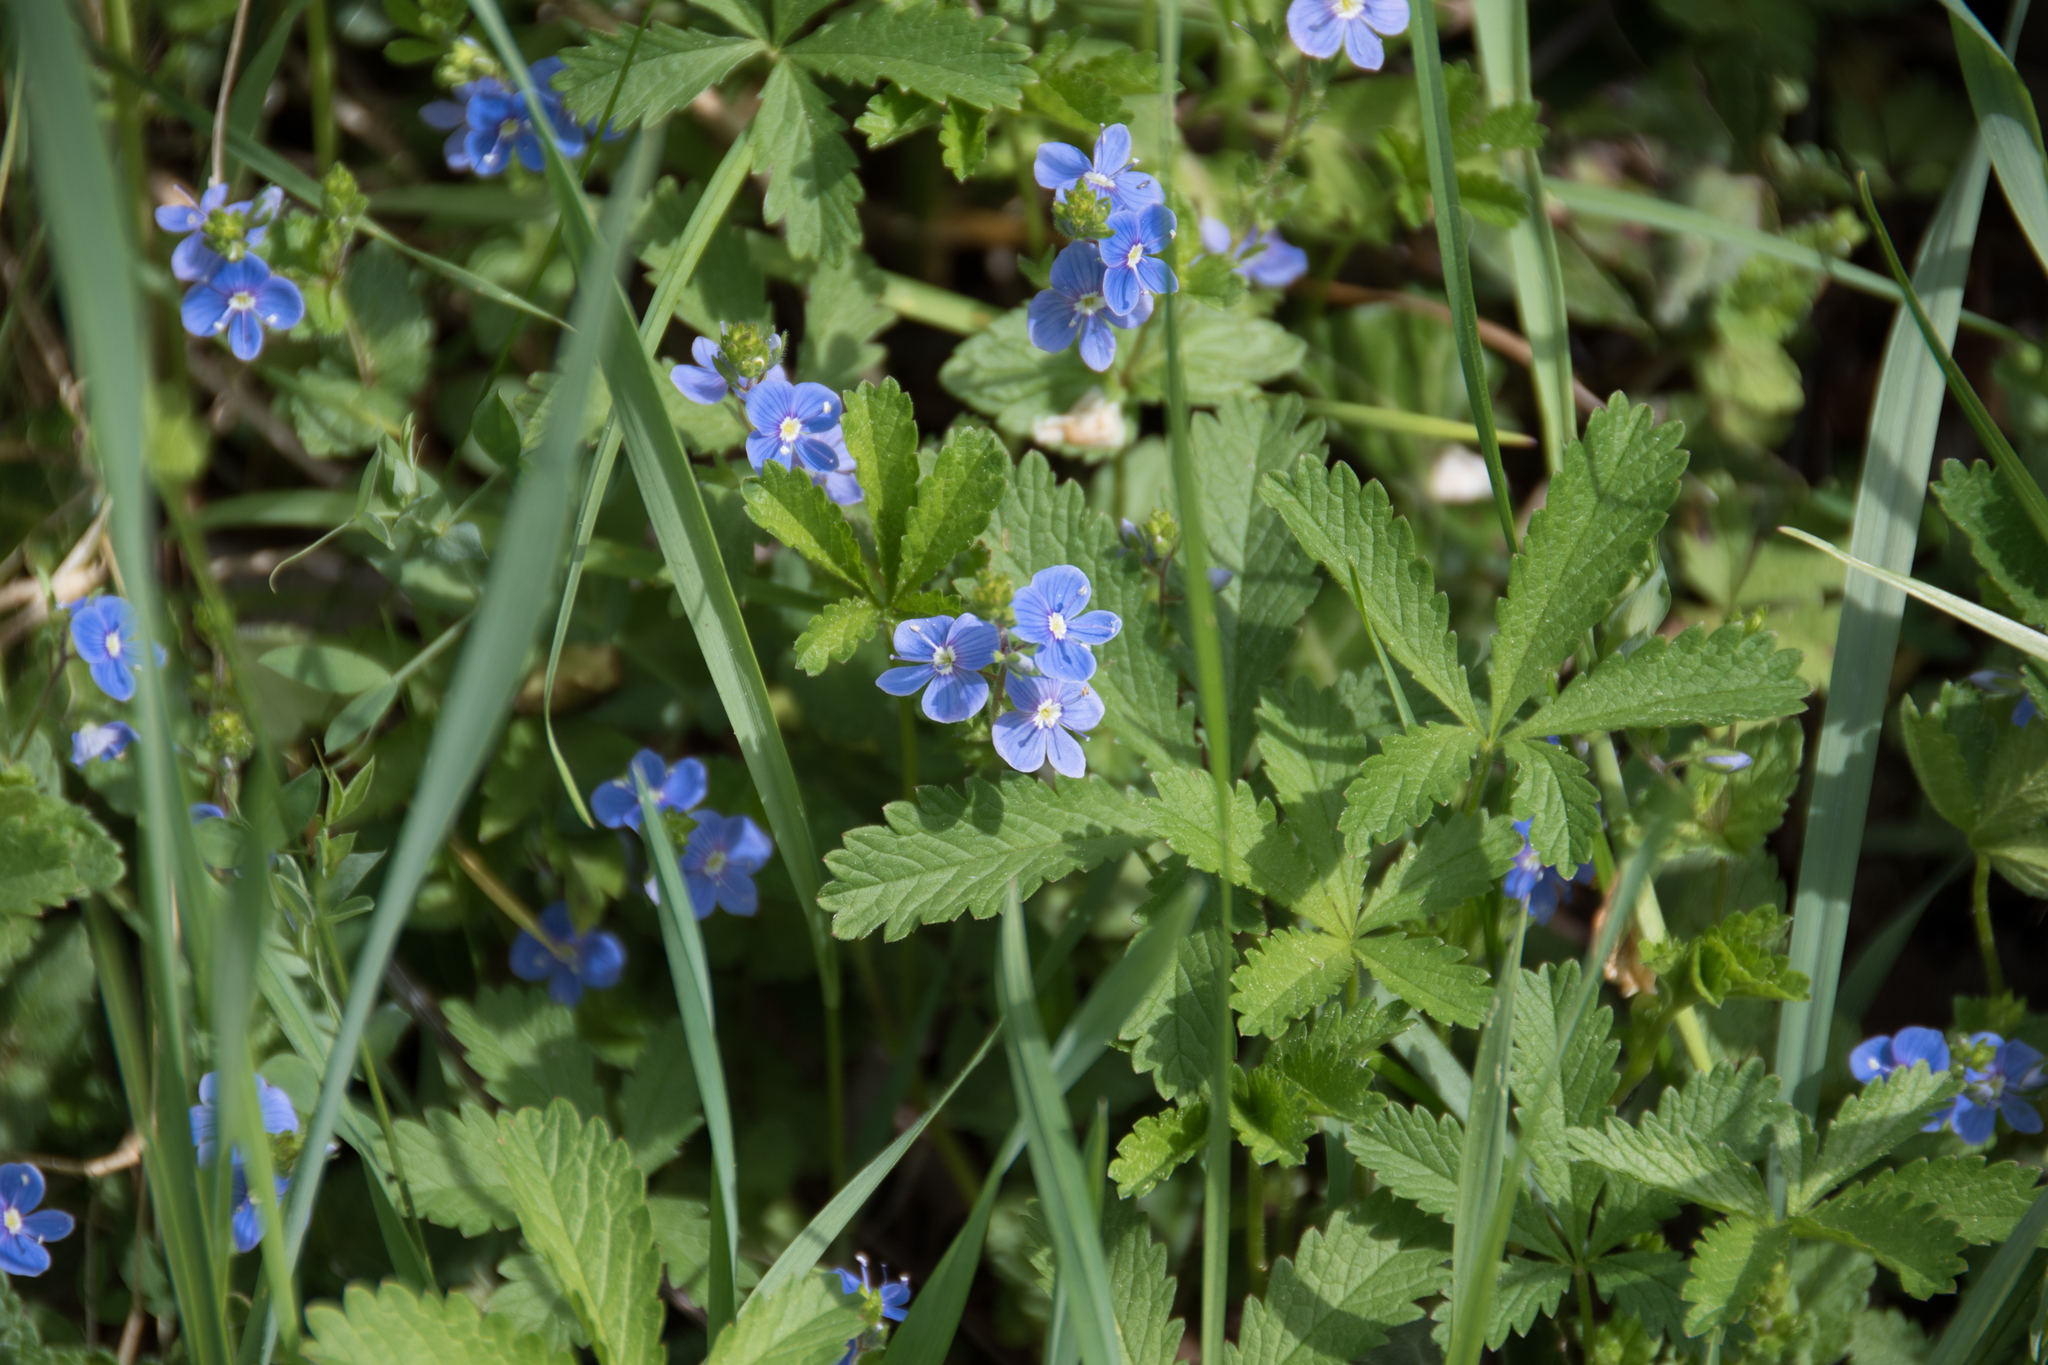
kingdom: Plantae
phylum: Tracheophyta
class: Magnoliopsida
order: Lamiales
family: Plantaginaceae
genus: Veronica
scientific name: Veronica chamaedrys
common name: Germander speedwell
